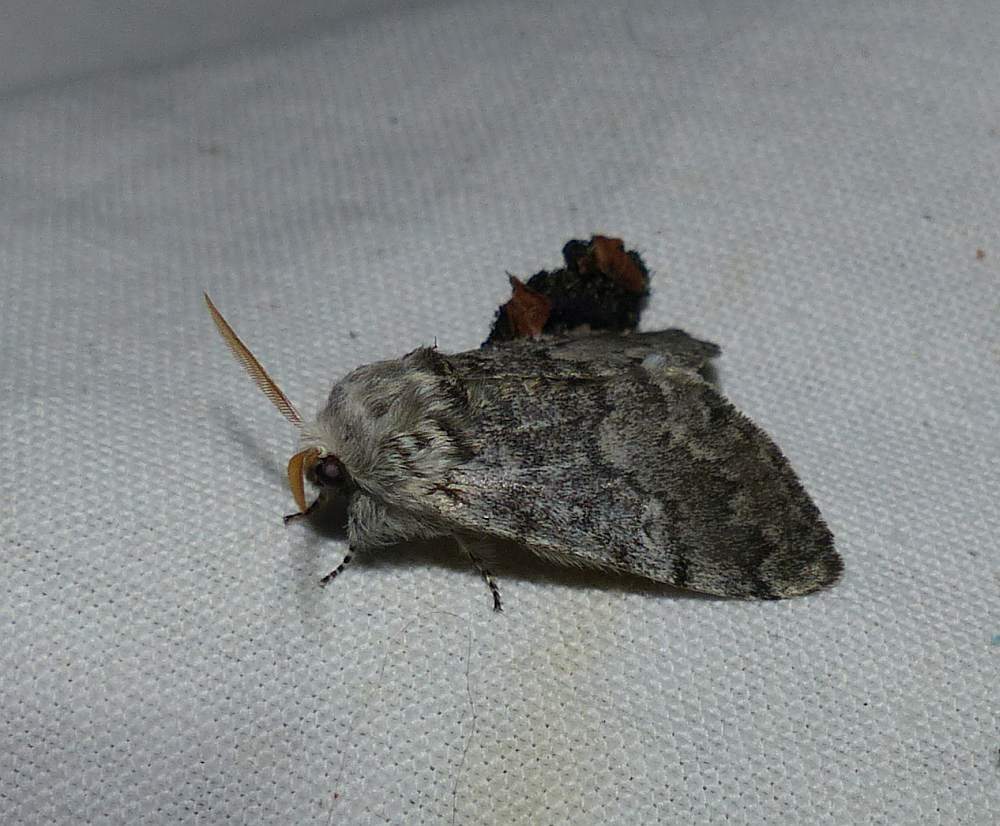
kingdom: Animalia
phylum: Arthropoda
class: Insecta
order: Lepidoptera
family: Noctuidae
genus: Colocasia
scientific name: Colocasia propinquilinea
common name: Close-banded demas
